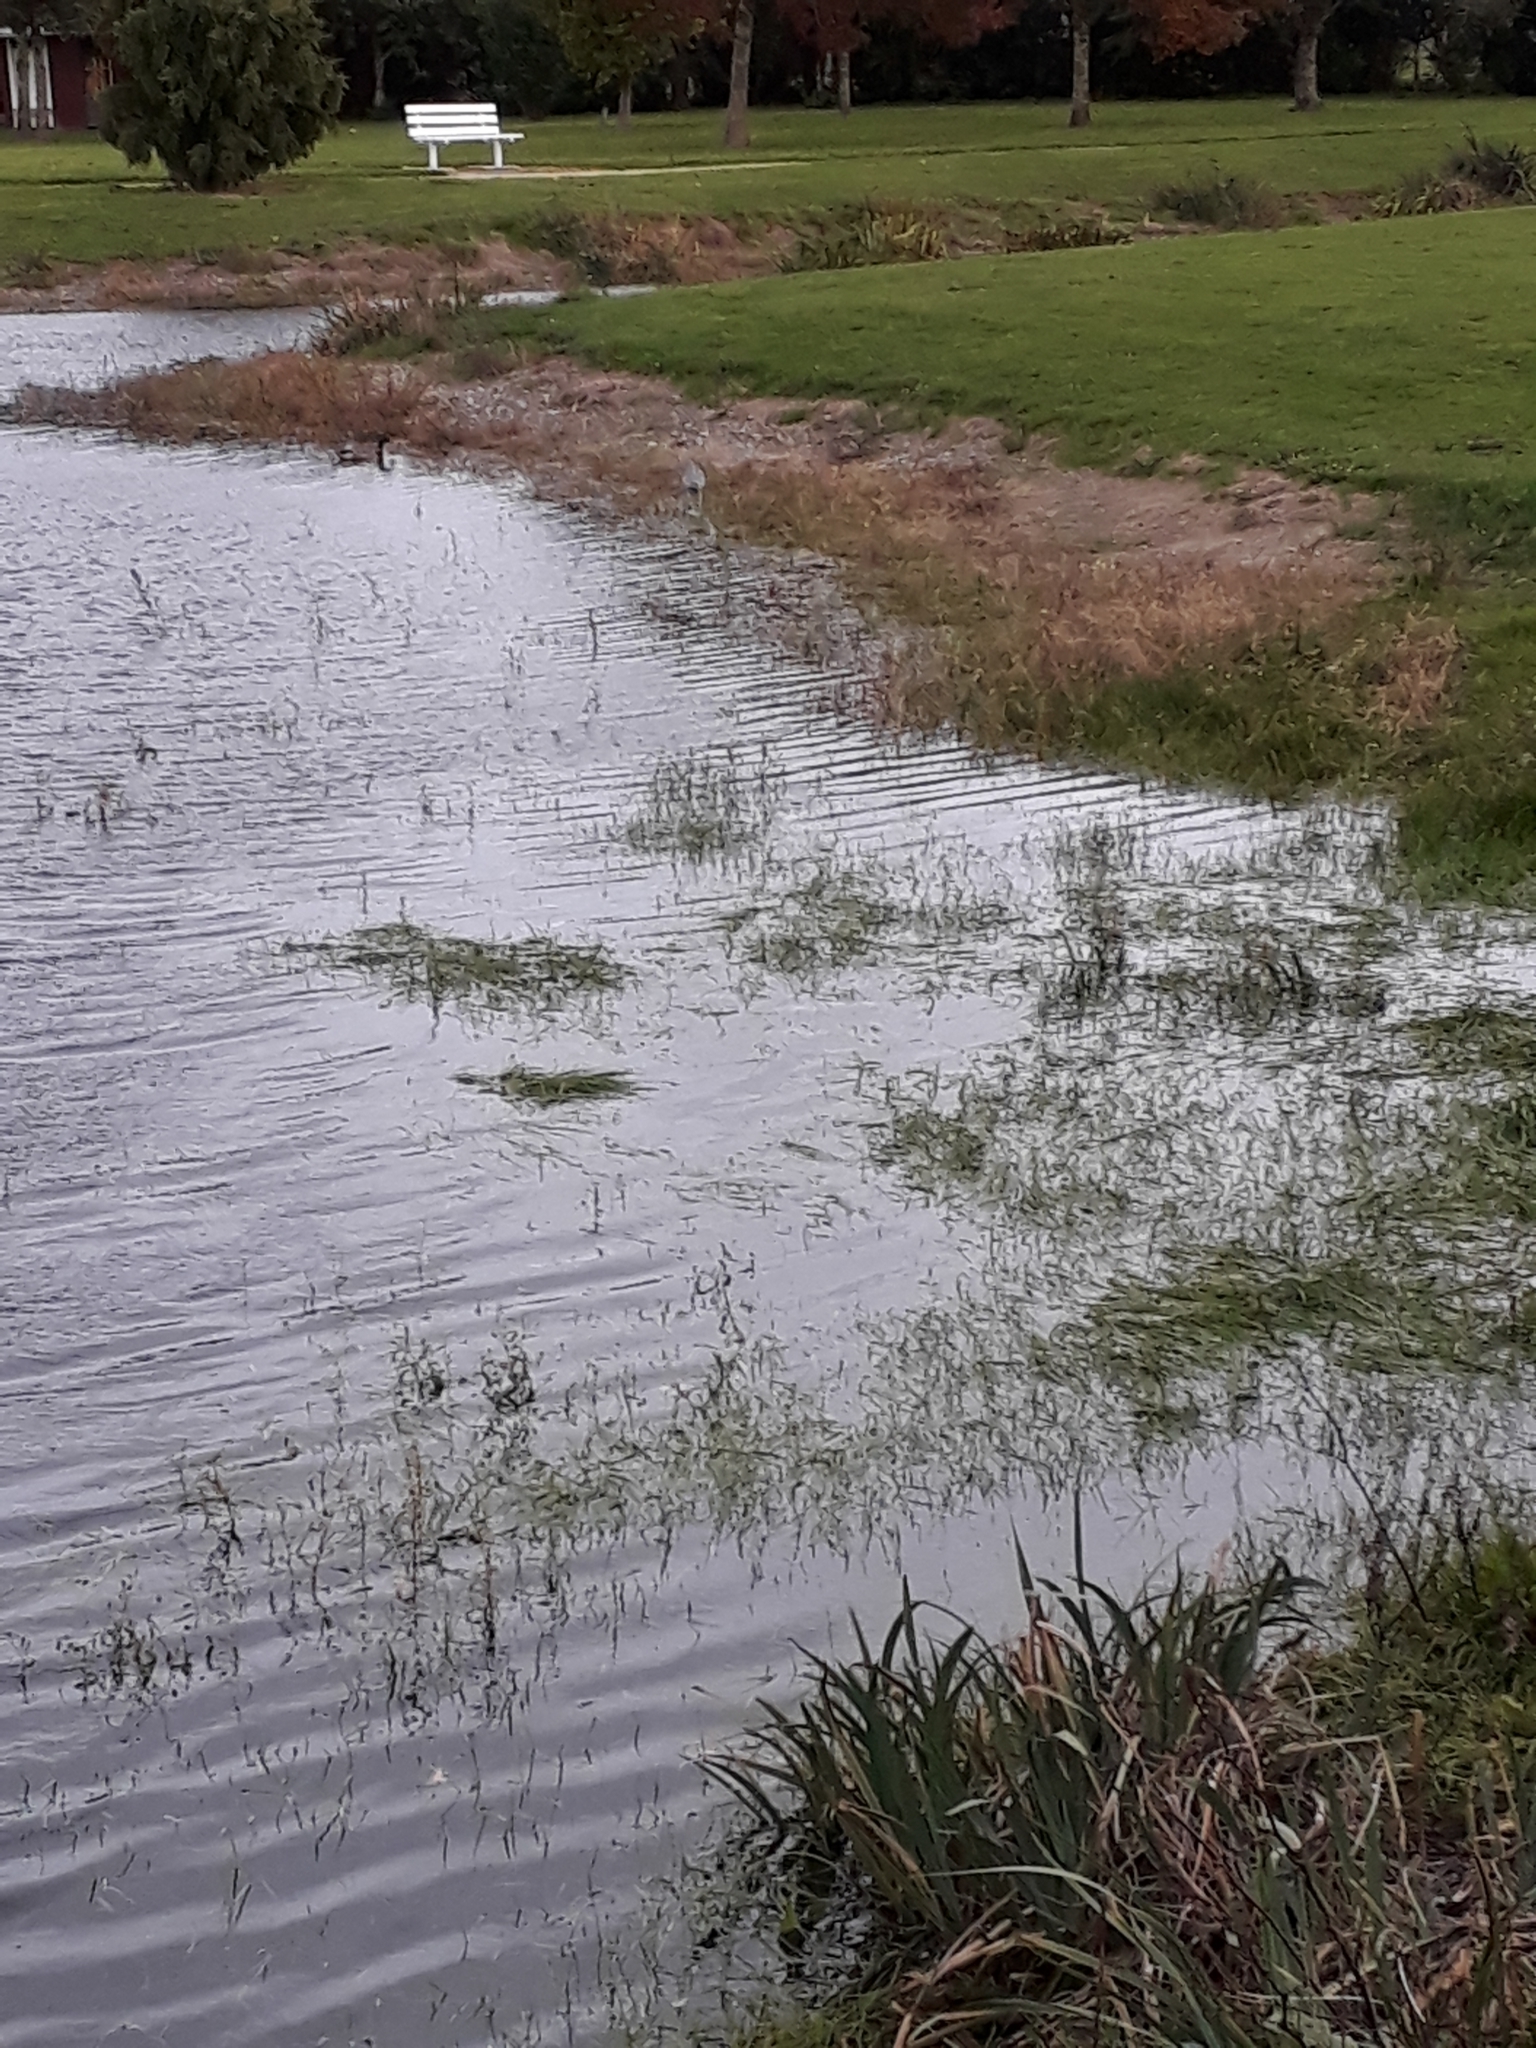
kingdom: Animalia
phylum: Chordata
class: Aves
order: Pelecaniformes
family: Ardeidae
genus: Egretta
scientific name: Egretta novaehollandiae
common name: White-faced heron
